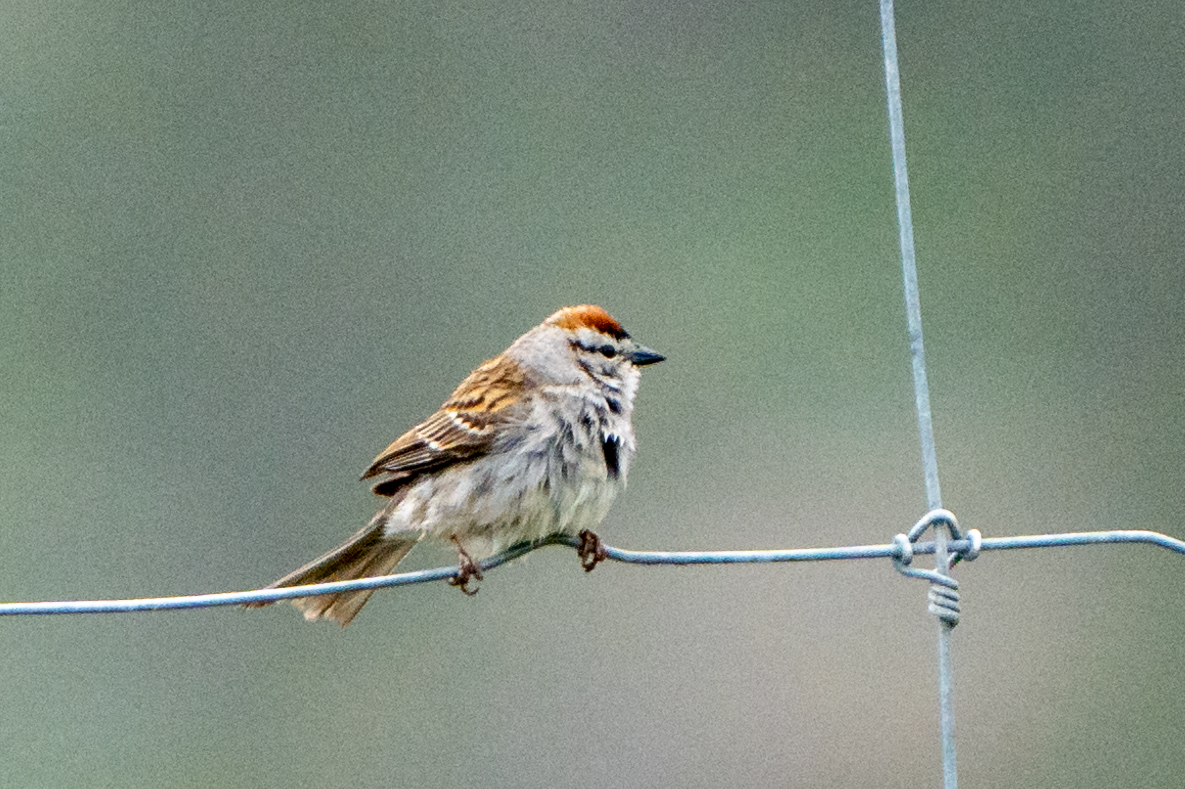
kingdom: Animalia
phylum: Chordata
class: Aves
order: Passeriformes
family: Passerellidae
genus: Spizella
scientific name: Spizella passerina
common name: Chipping sparrow
